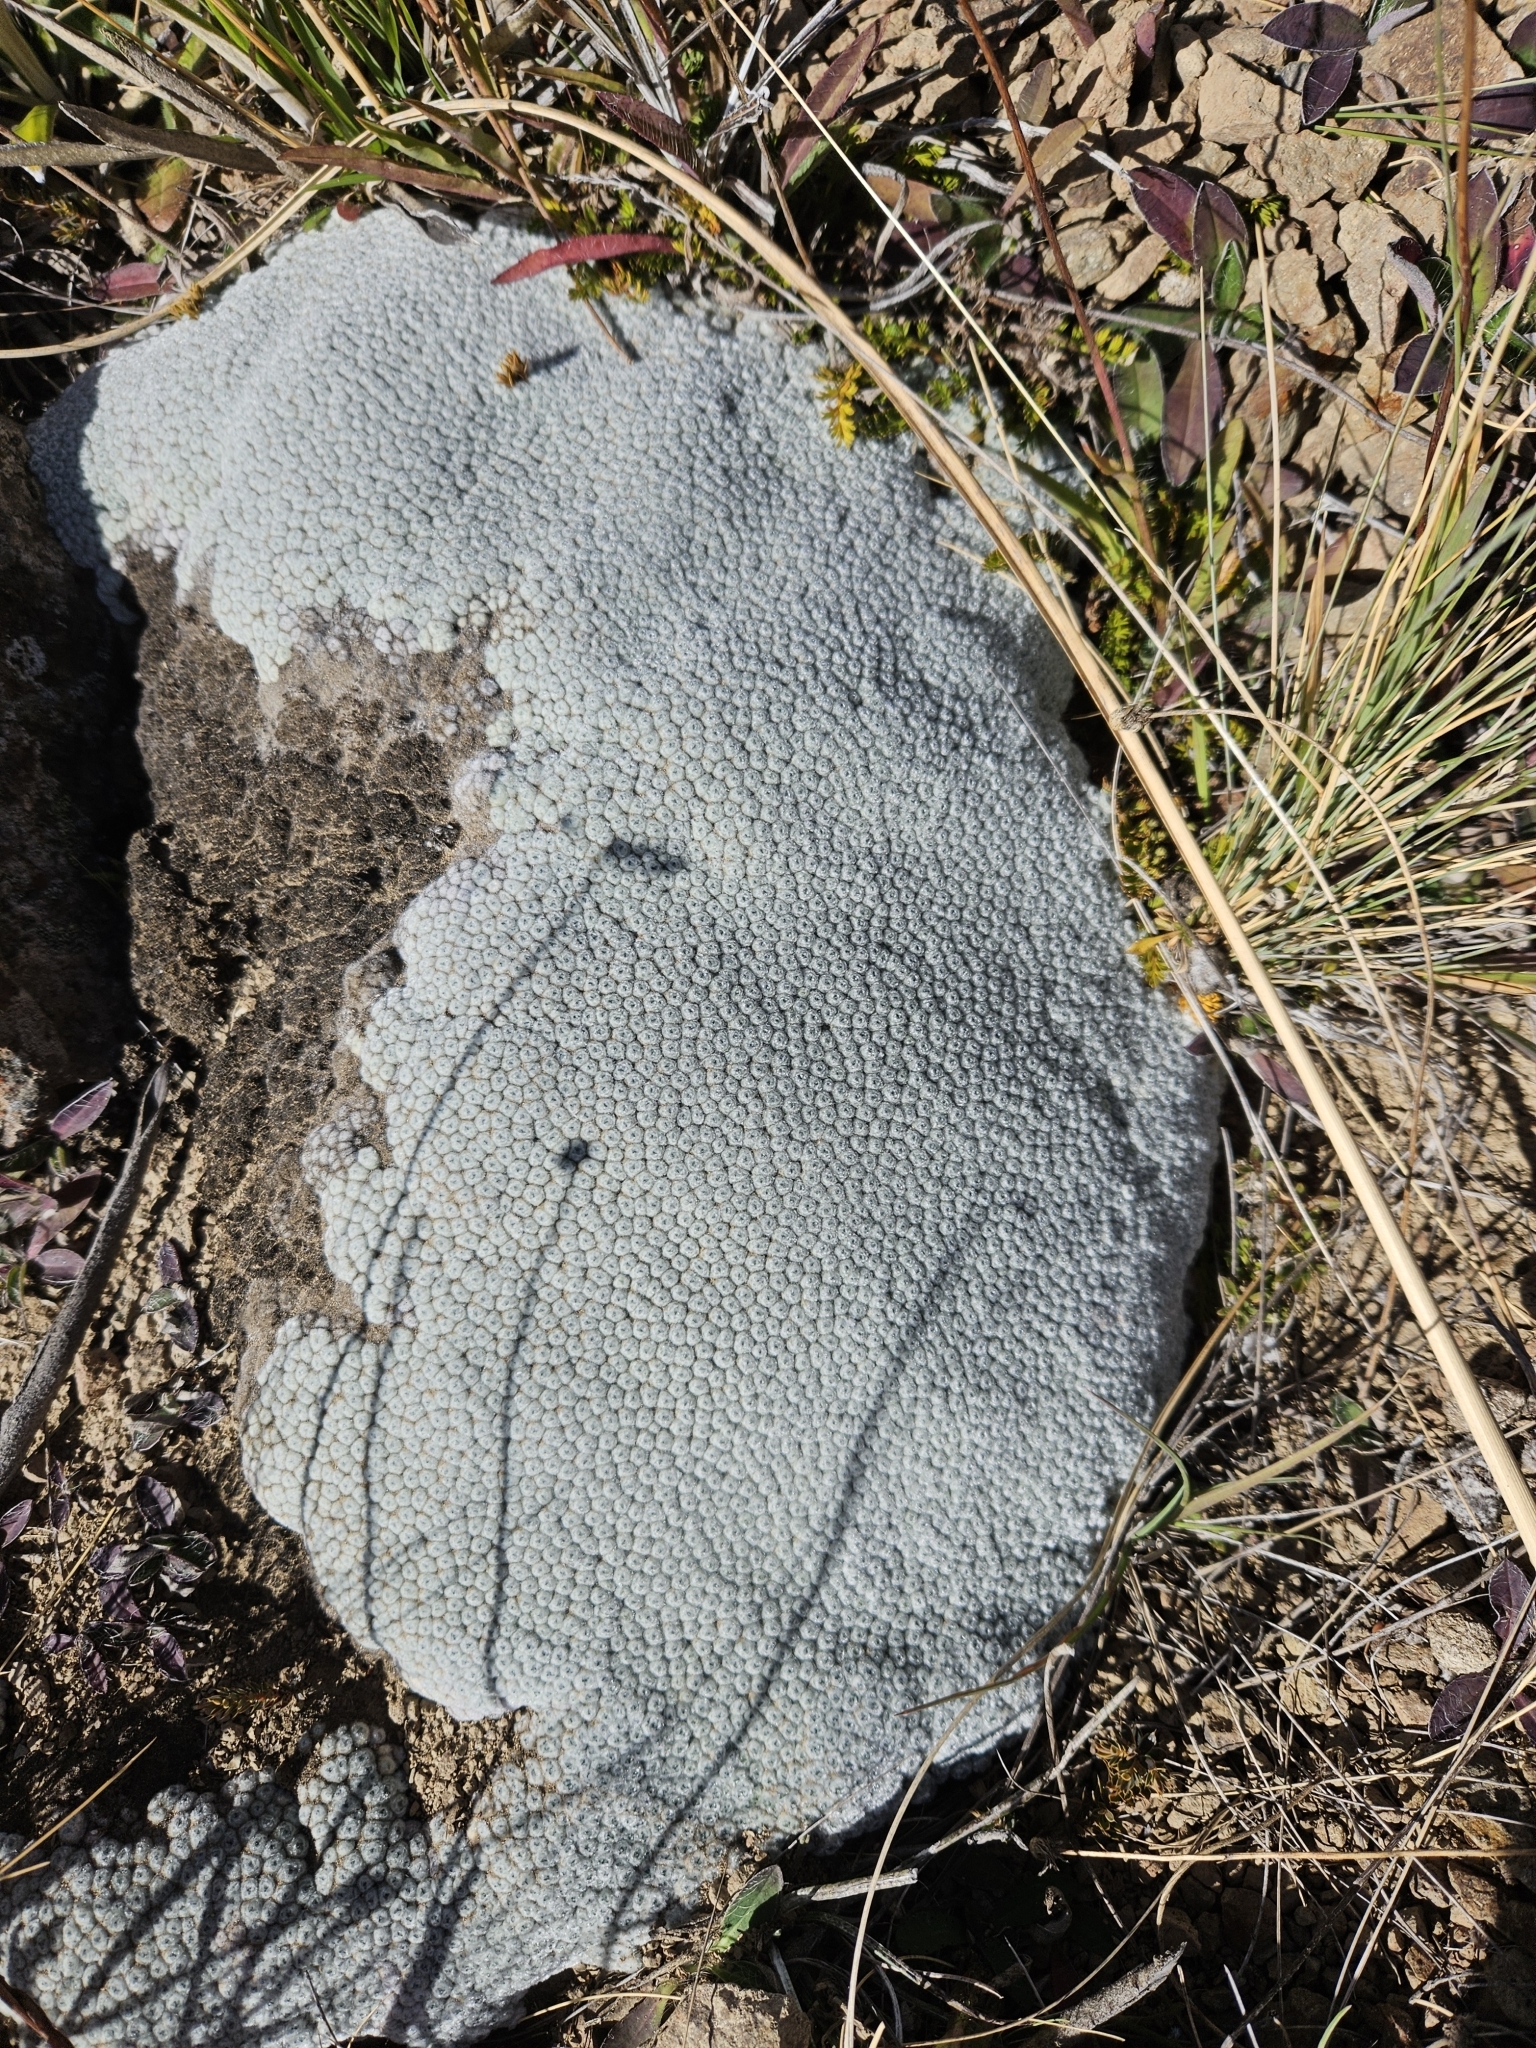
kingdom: Plantae
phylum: Tracheophyta
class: Magnoliopsida
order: Asterales
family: Asteraceae
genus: Raoulia
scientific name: Raoulia eximia
